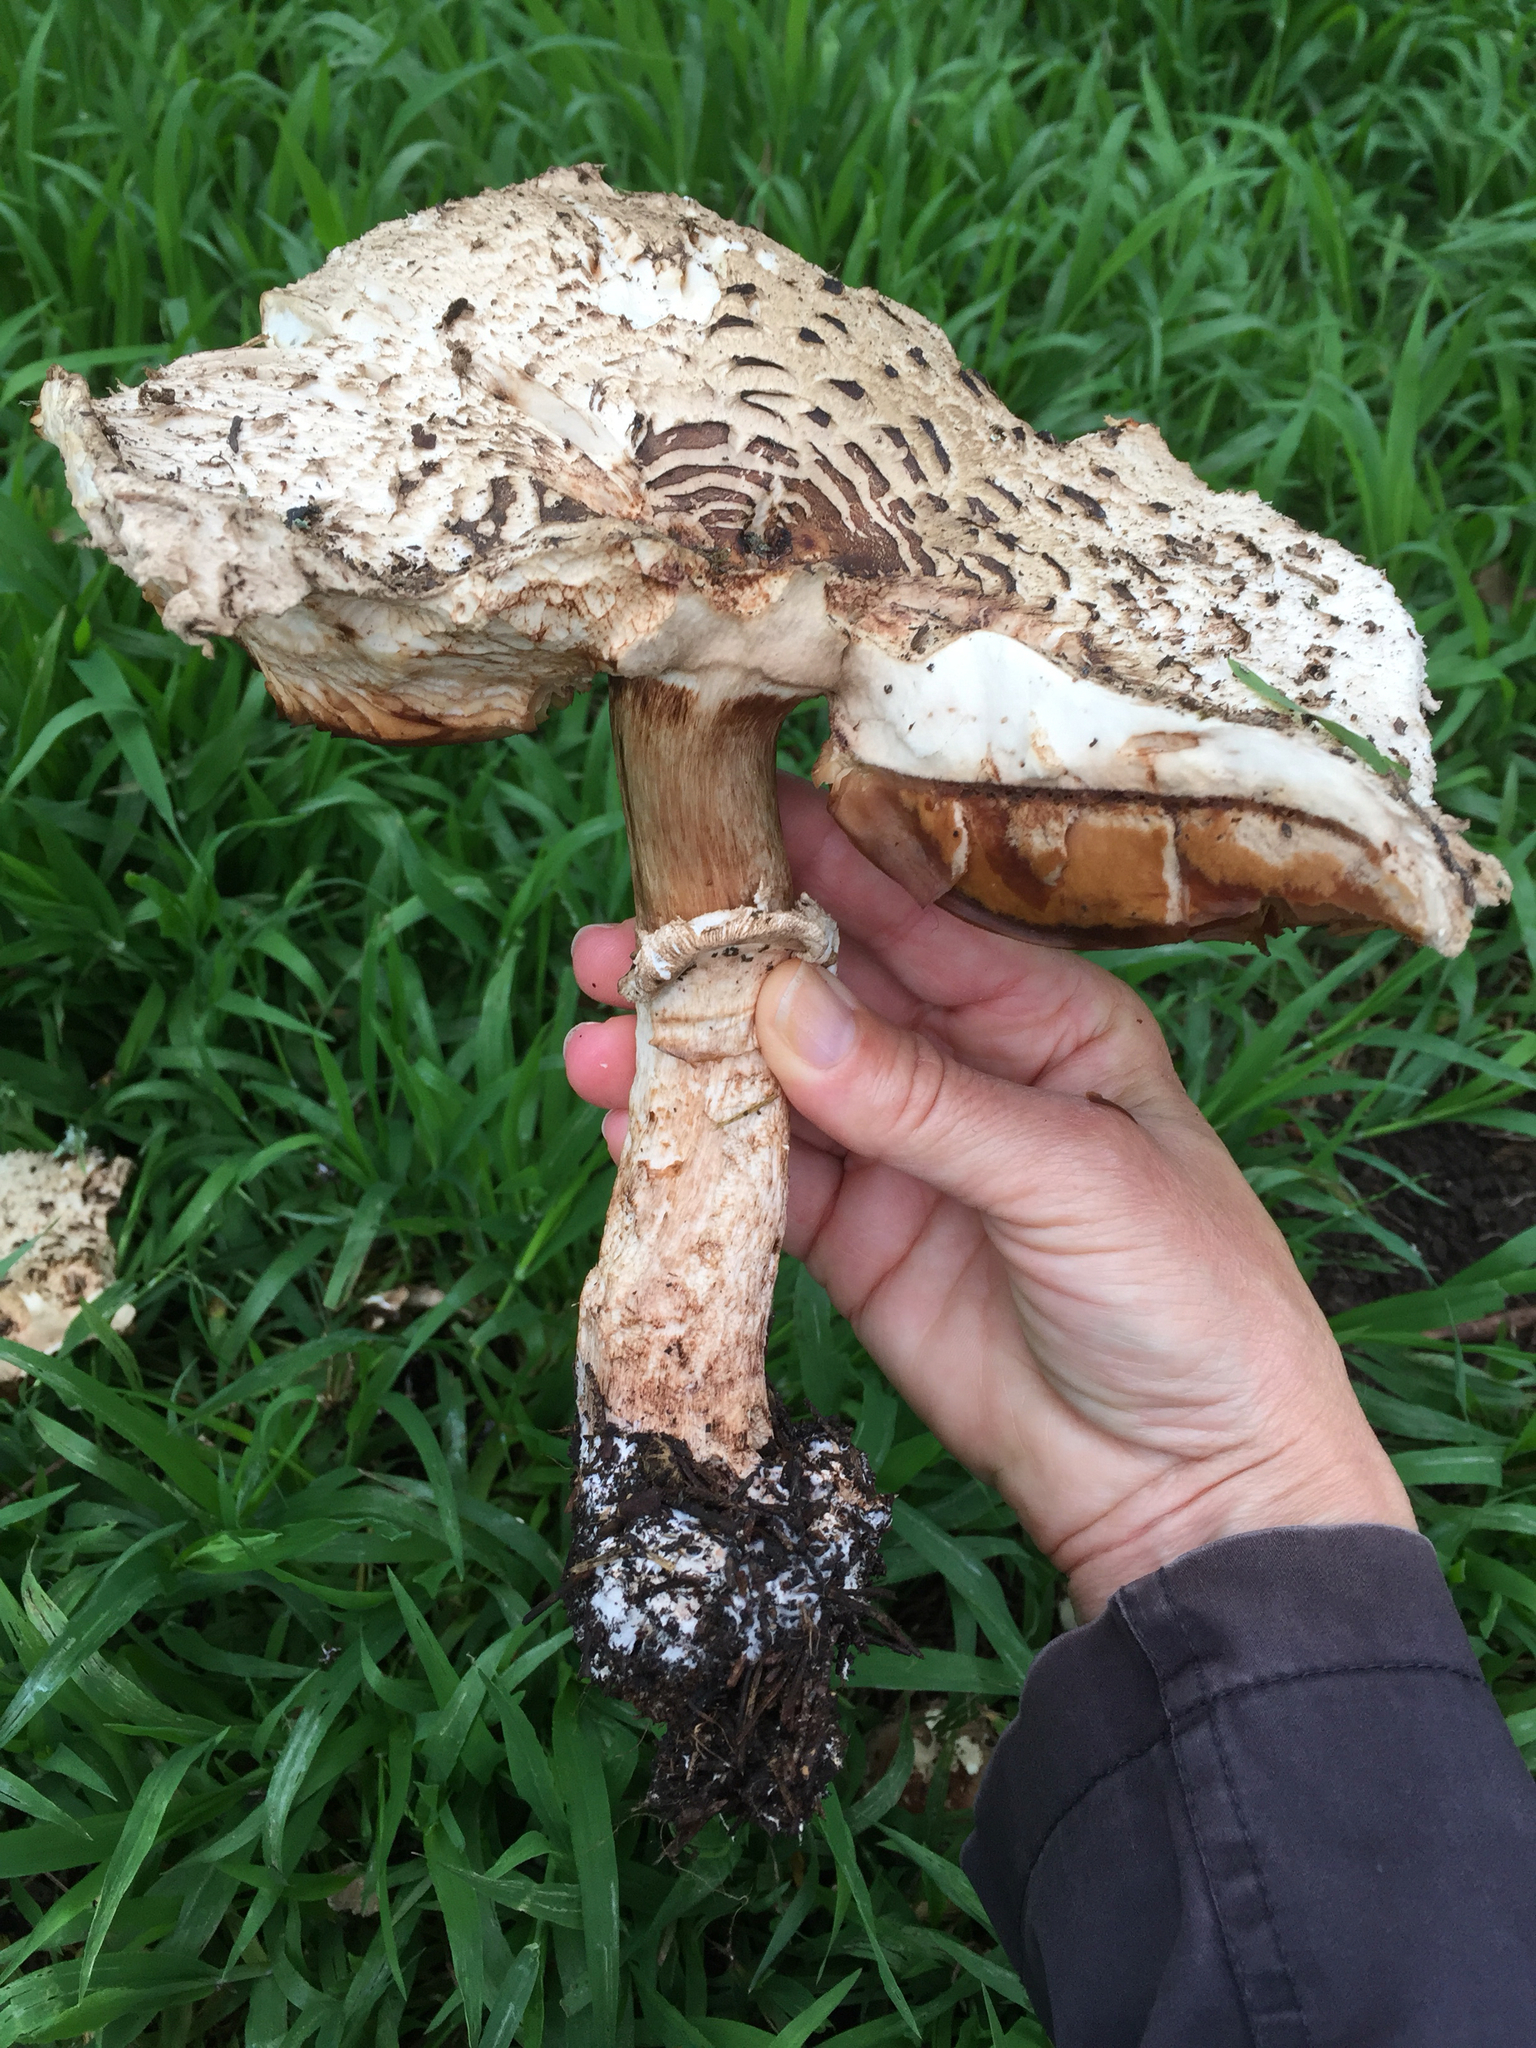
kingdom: Fungi
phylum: Basidiomycota
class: Agaricomycetes
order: Agaricales
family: Agaricaceae
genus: Chlorophyllum
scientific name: Chlorophyllum brunneum
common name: Brown parasol
